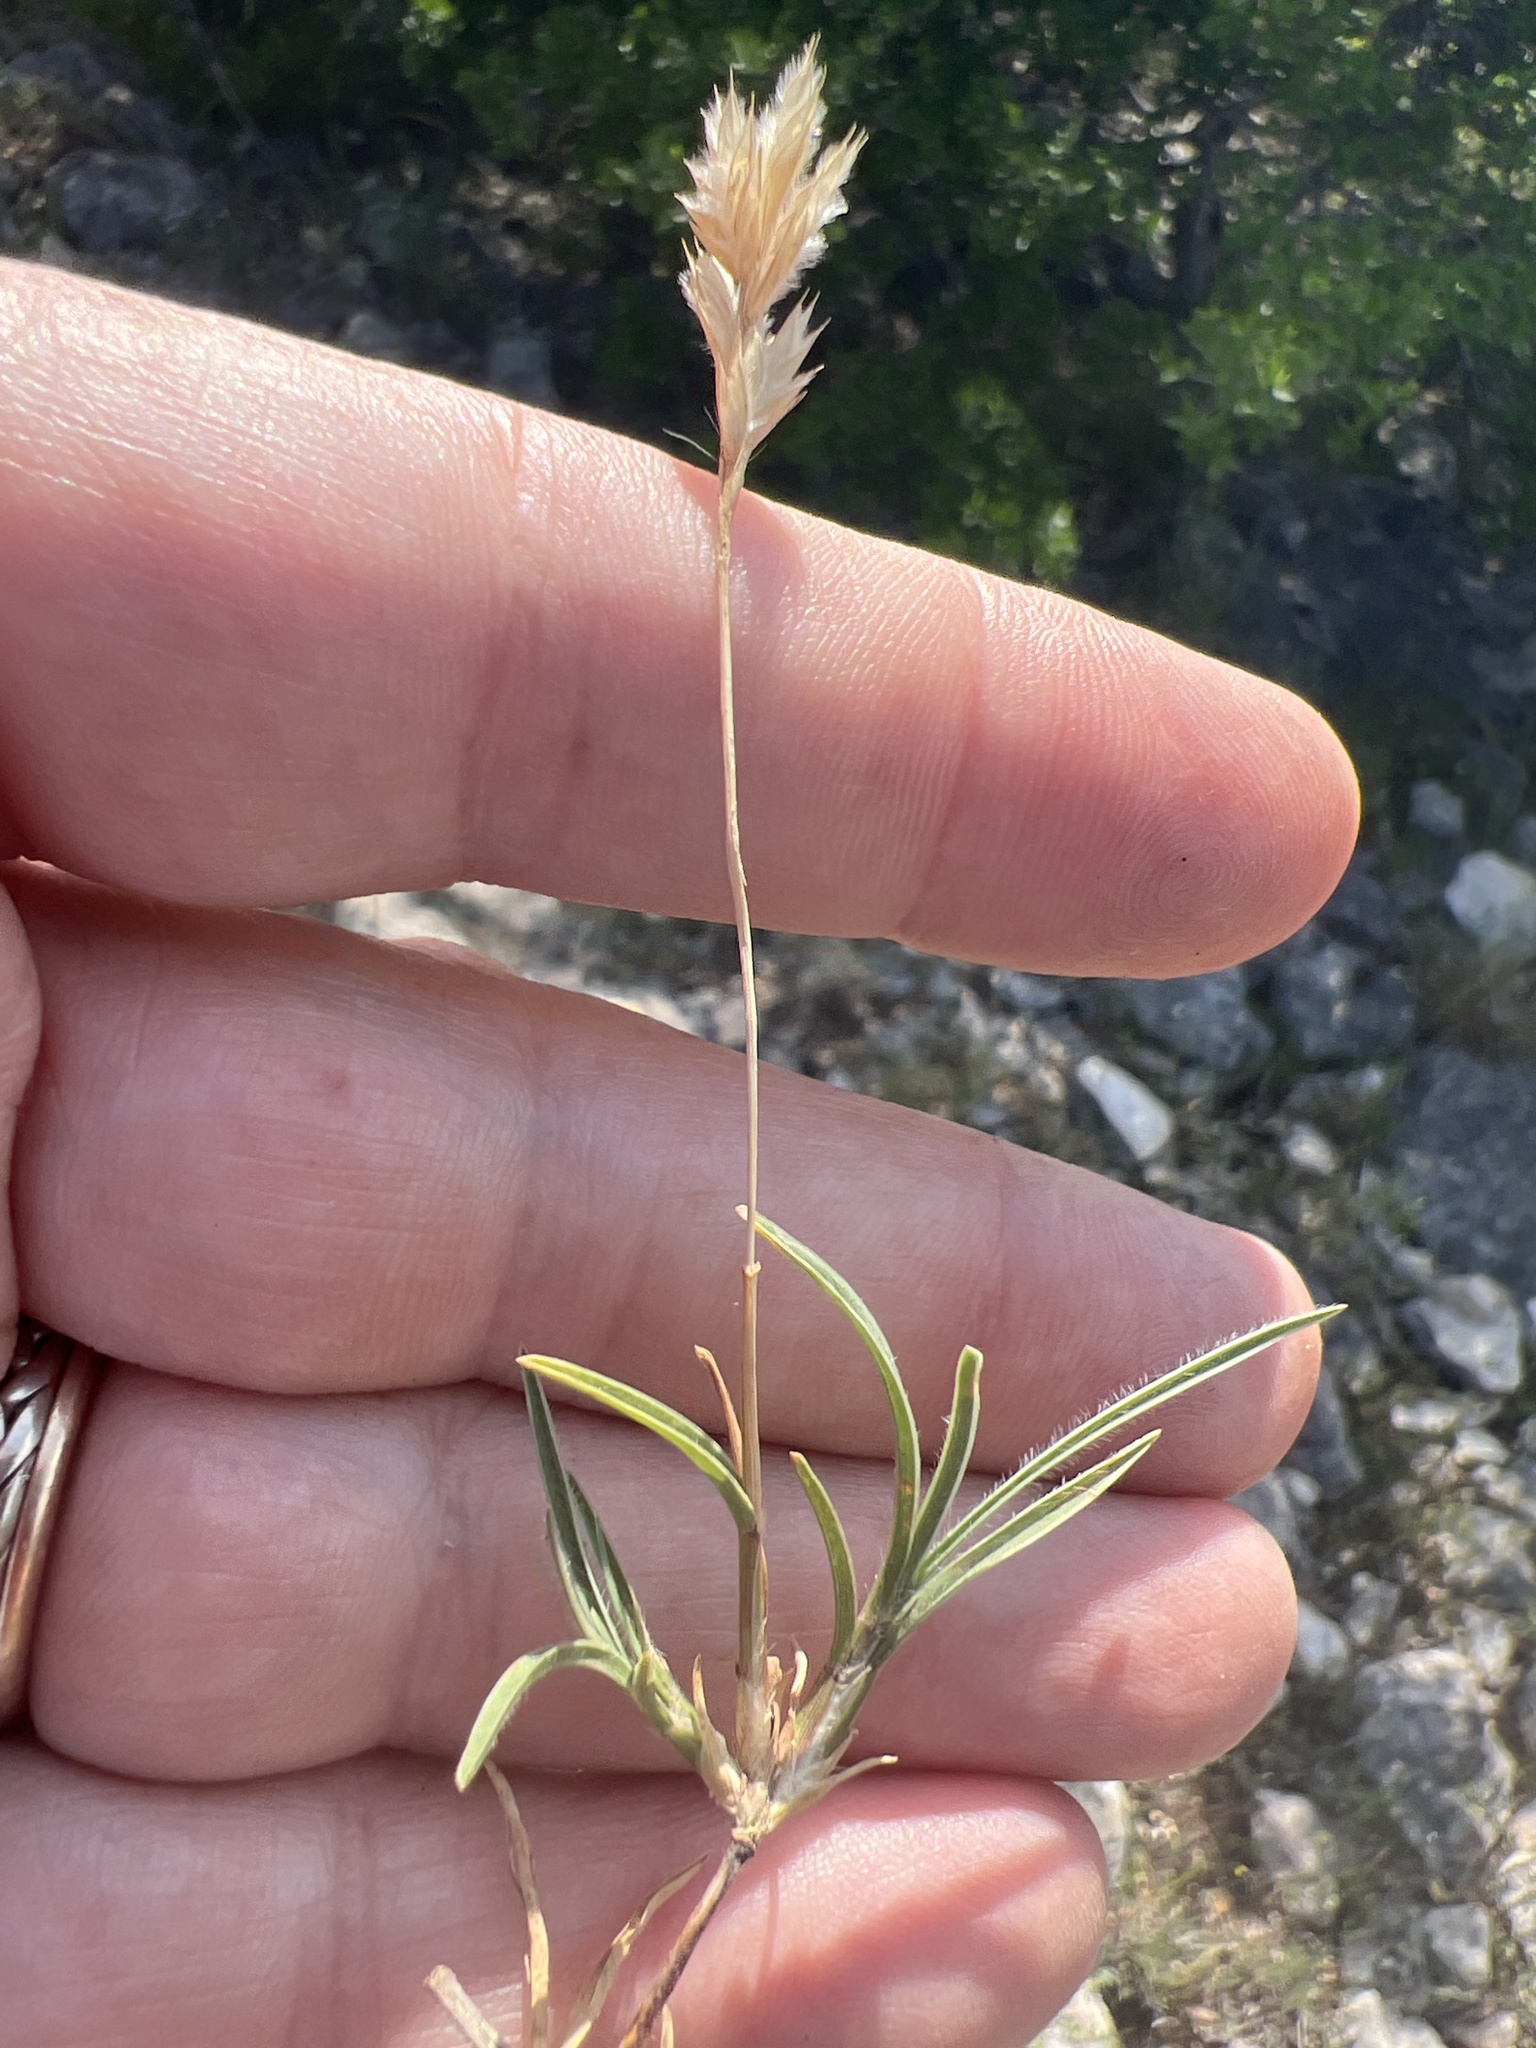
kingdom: Plantae
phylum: Tracheophyta
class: Liliopsida
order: Poales
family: Poaceae
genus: Erioneuron
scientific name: Erioneuron pilosum
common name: Hairy woolly grass
